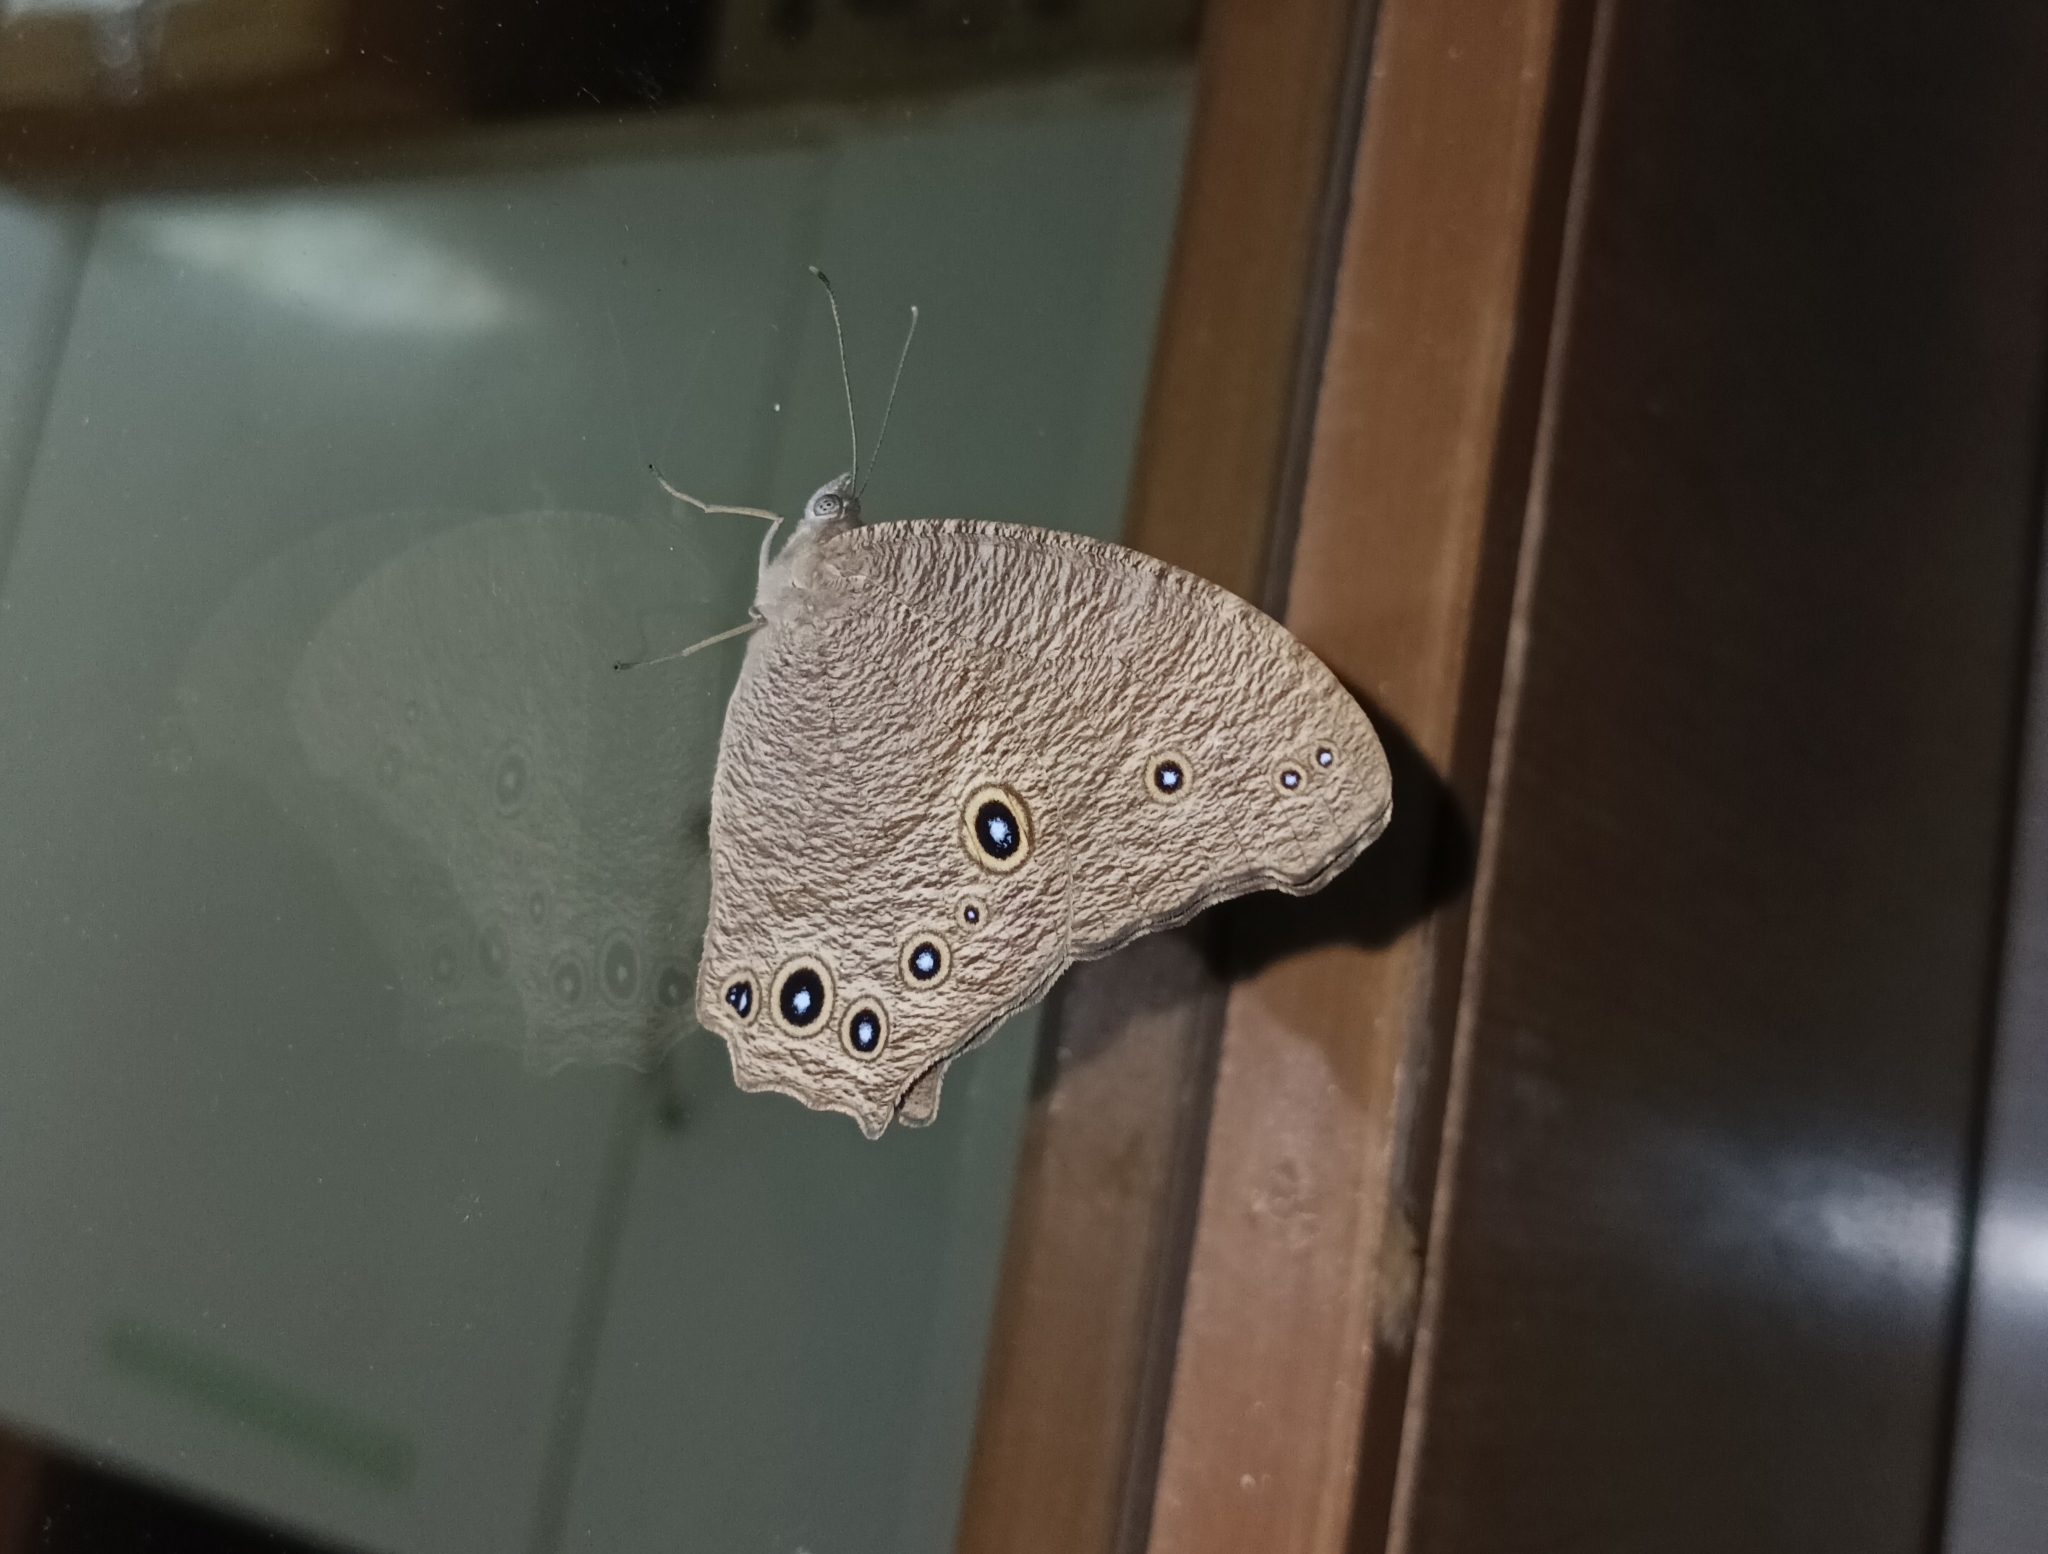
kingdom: Animalia
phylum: Arthropoda
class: Insecta
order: Lepidoptera
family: Nymphalidae
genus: Melanitis
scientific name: Melanitis leda
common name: Twilight brown
